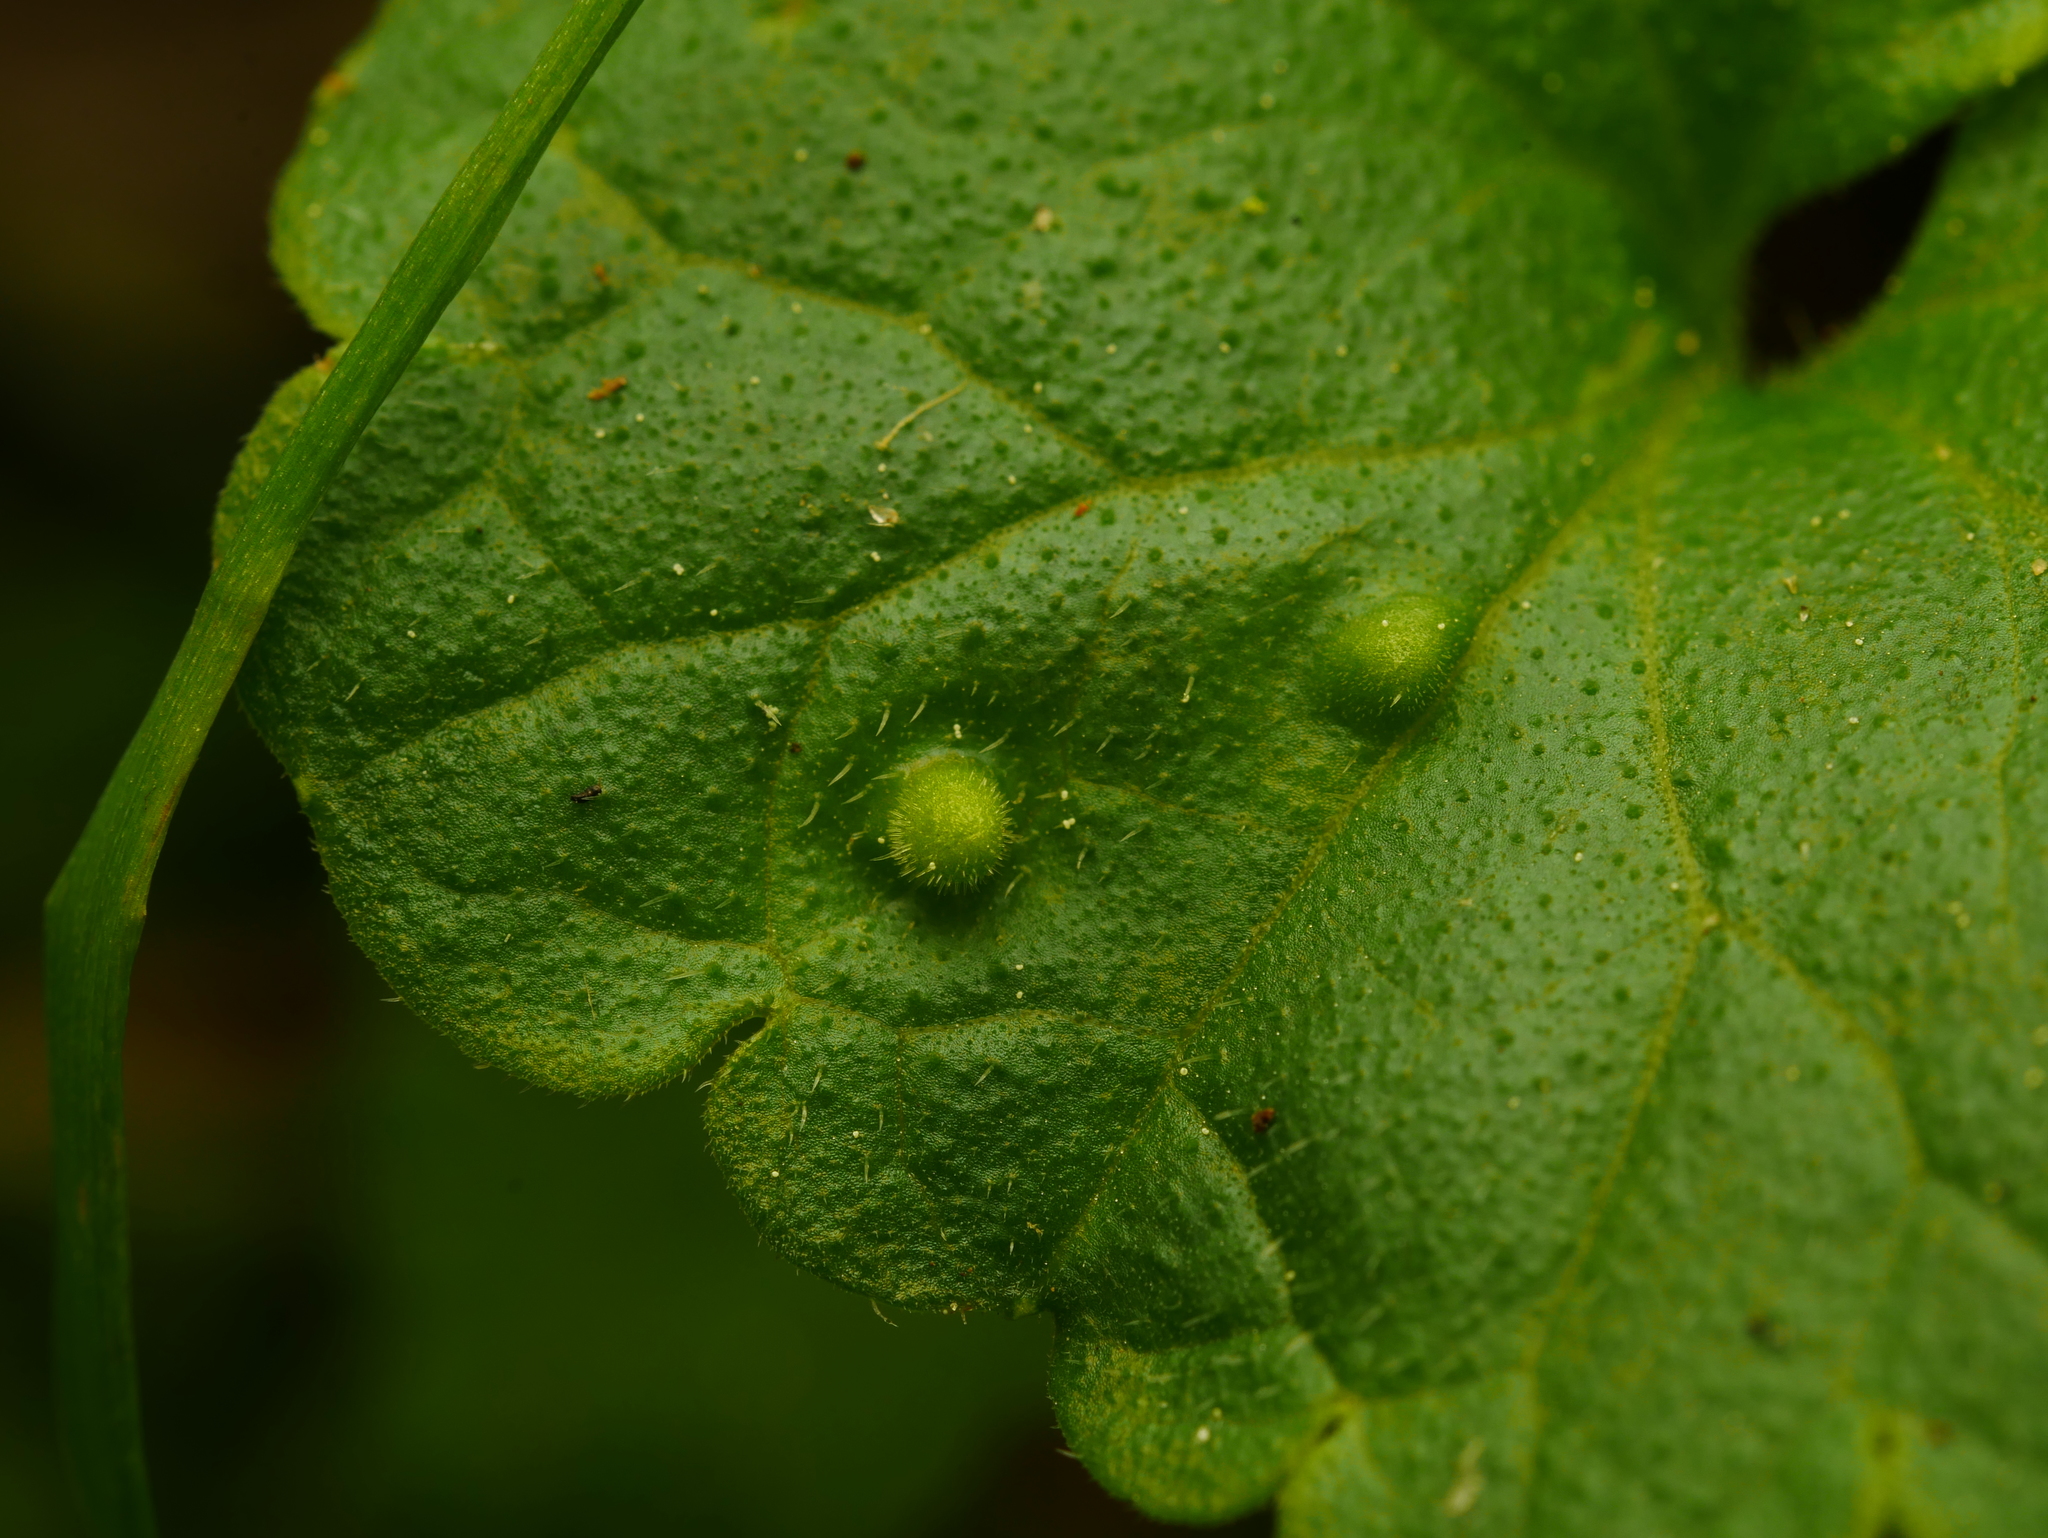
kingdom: Animalia
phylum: Arthropoda
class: Insecta
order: Diptera
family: Cecidomyiidae
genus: Rondaniola
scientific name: Rondaniola bursaria
